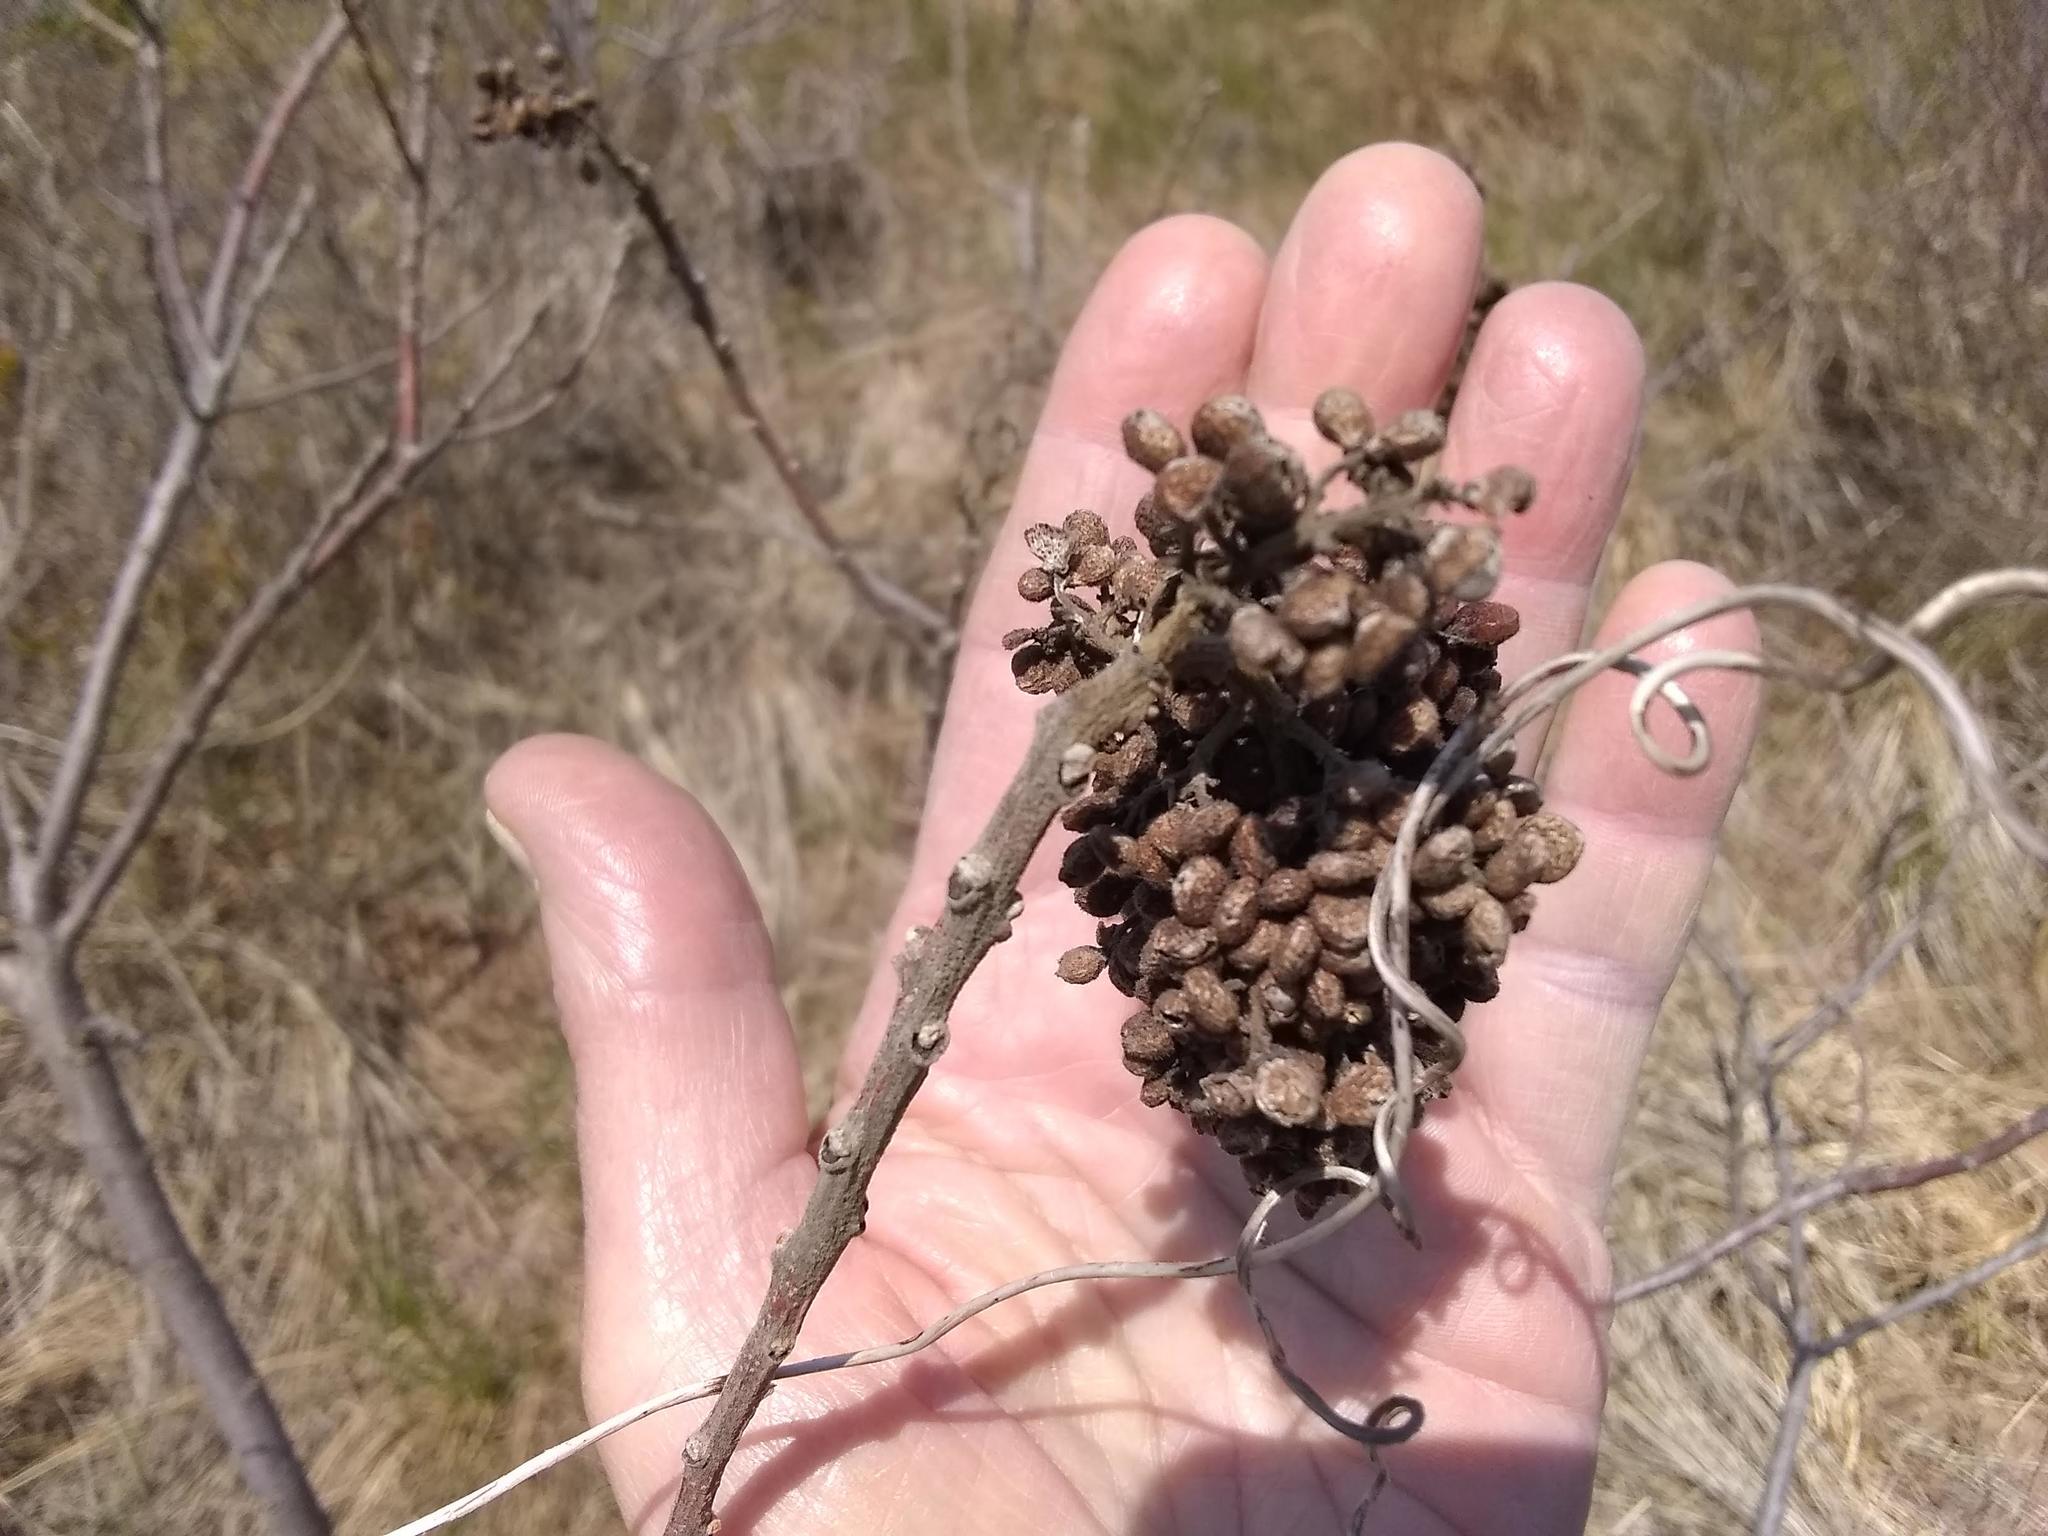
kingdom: Plantae
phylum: Tracheophyta
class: Magnoliopsida
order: Sapindales
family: Anacardiaceae
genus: Rhus
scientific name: Rhus copallina
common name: Shining sumac
